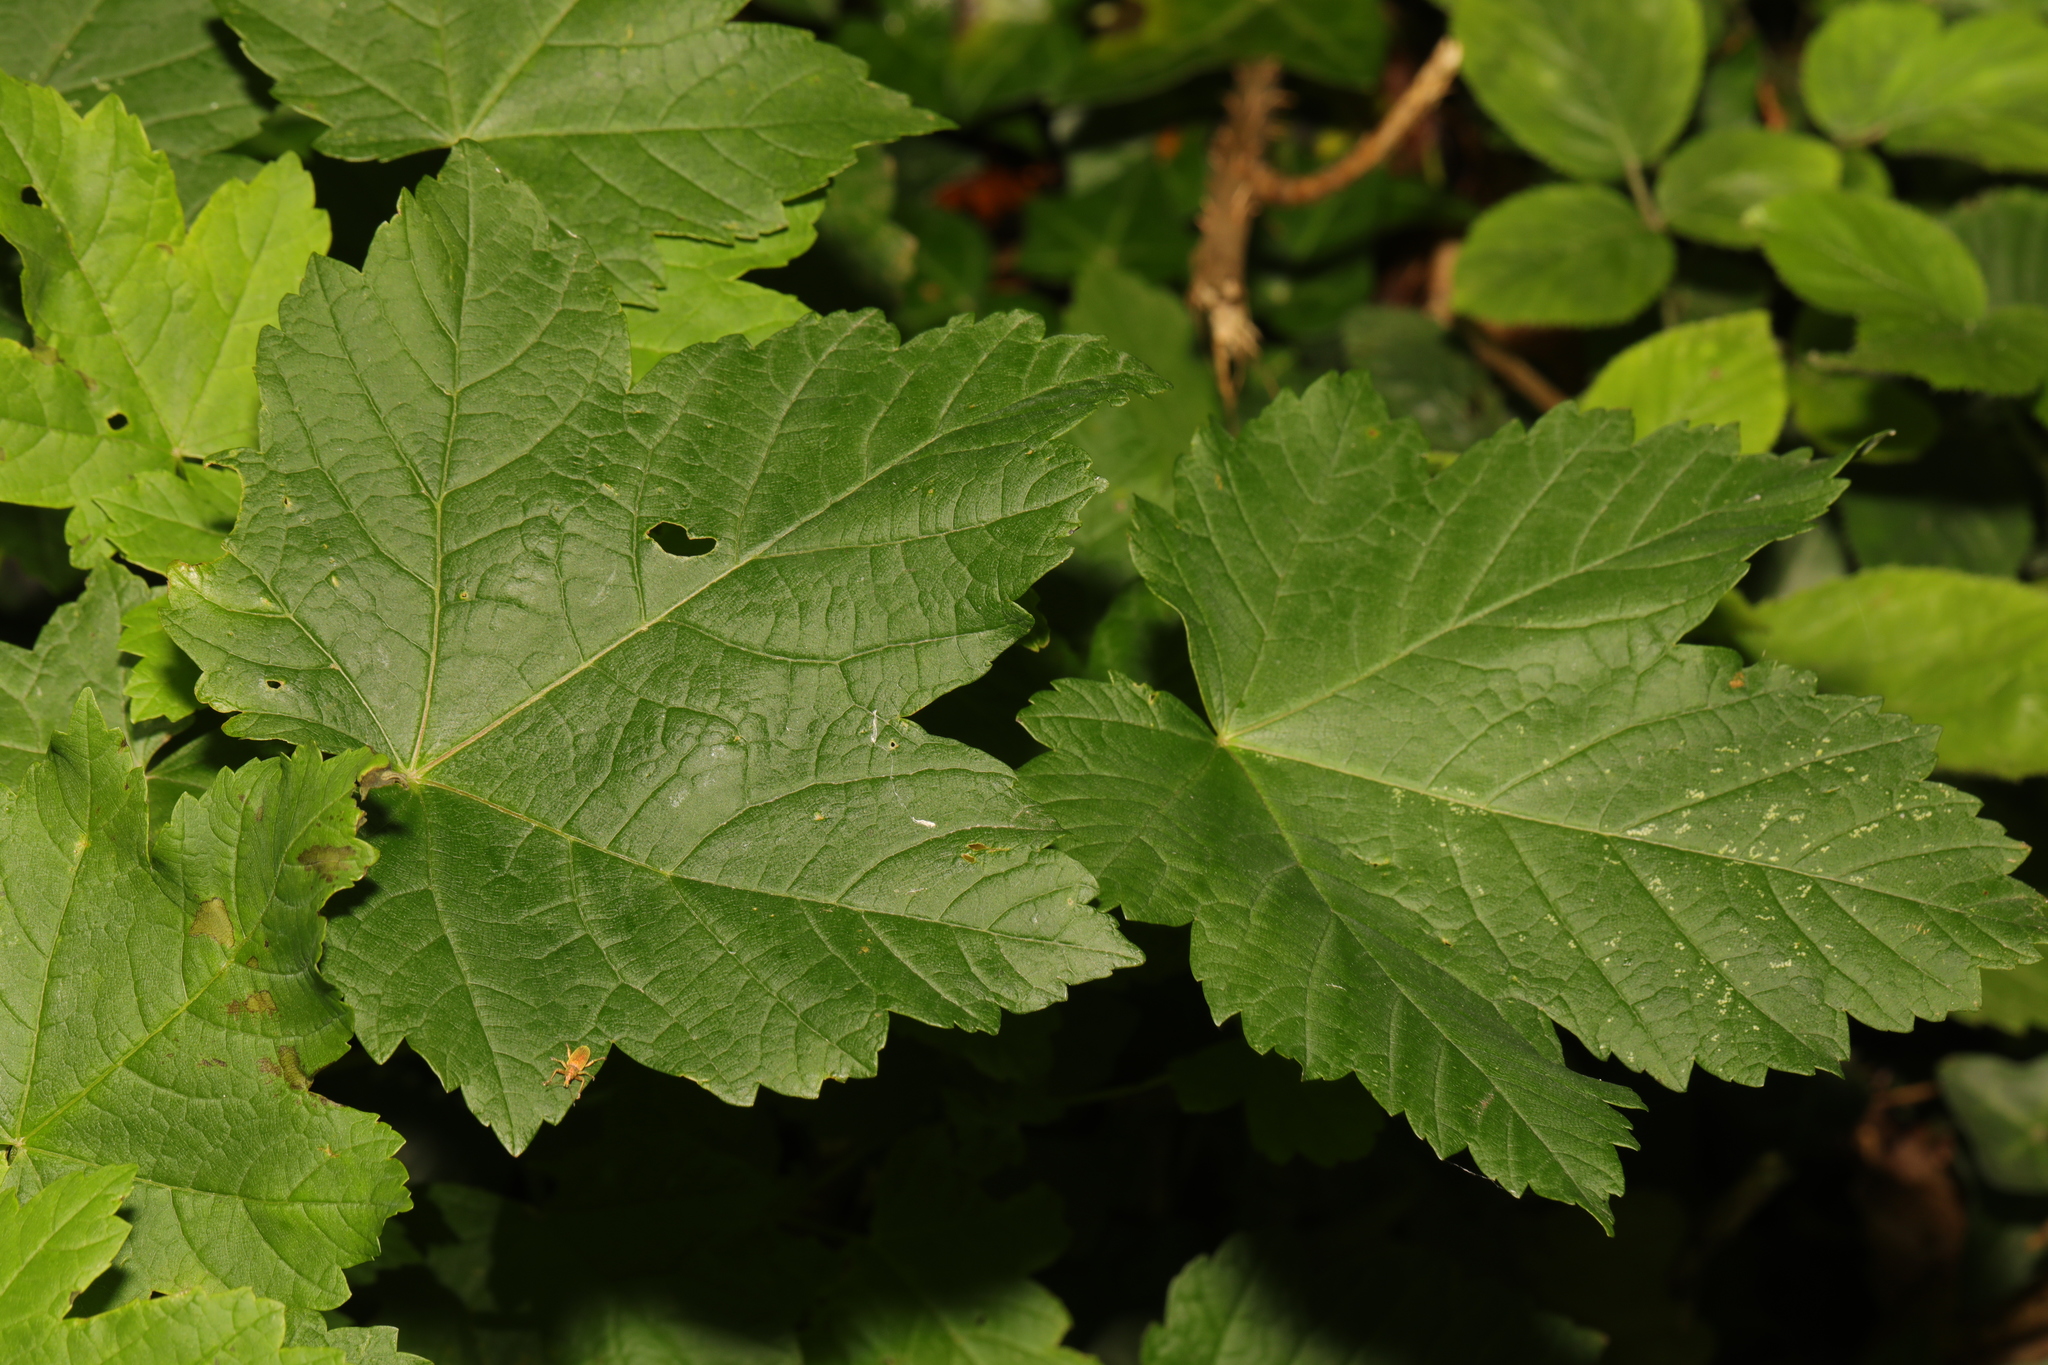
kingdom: Plantae
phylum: Tracheophyta
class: Magnoliopsida
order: Sapindales
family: Sapindaceae
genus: Acer
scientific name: Acer pseudoplatanus
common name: Sycamore
